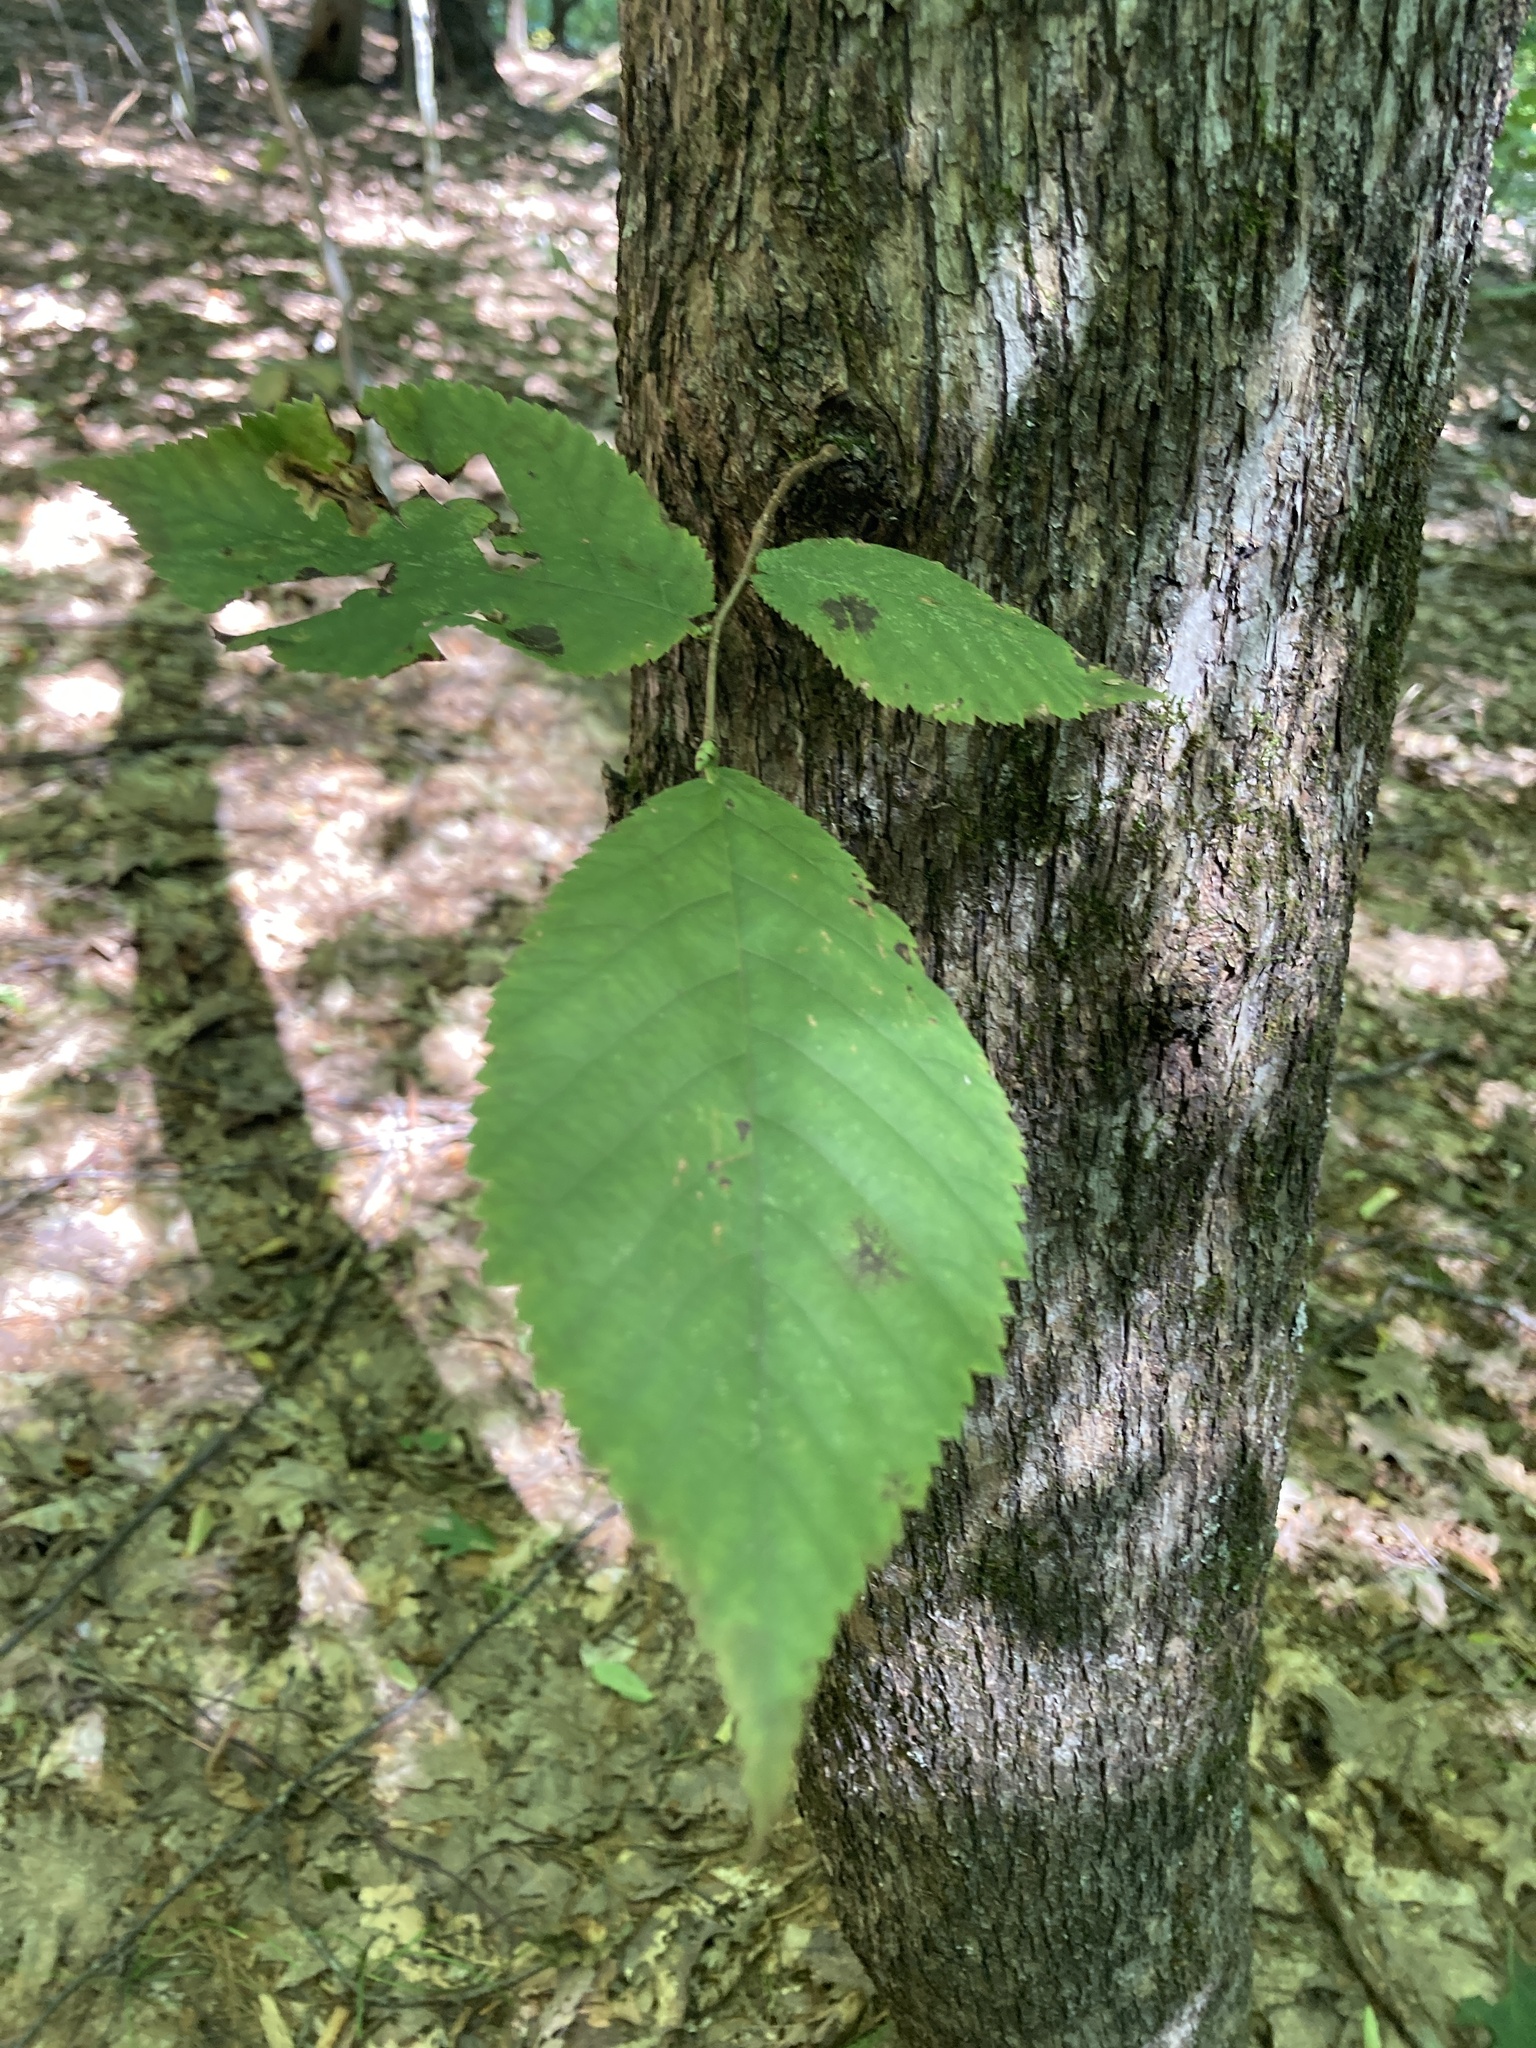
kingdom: Plantae
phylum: Tracheophyta
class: Magnoliopsida
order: Fagales
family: Betulaceae
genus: Ostrya
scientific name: Ostrya virginiana
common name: Ironwood
